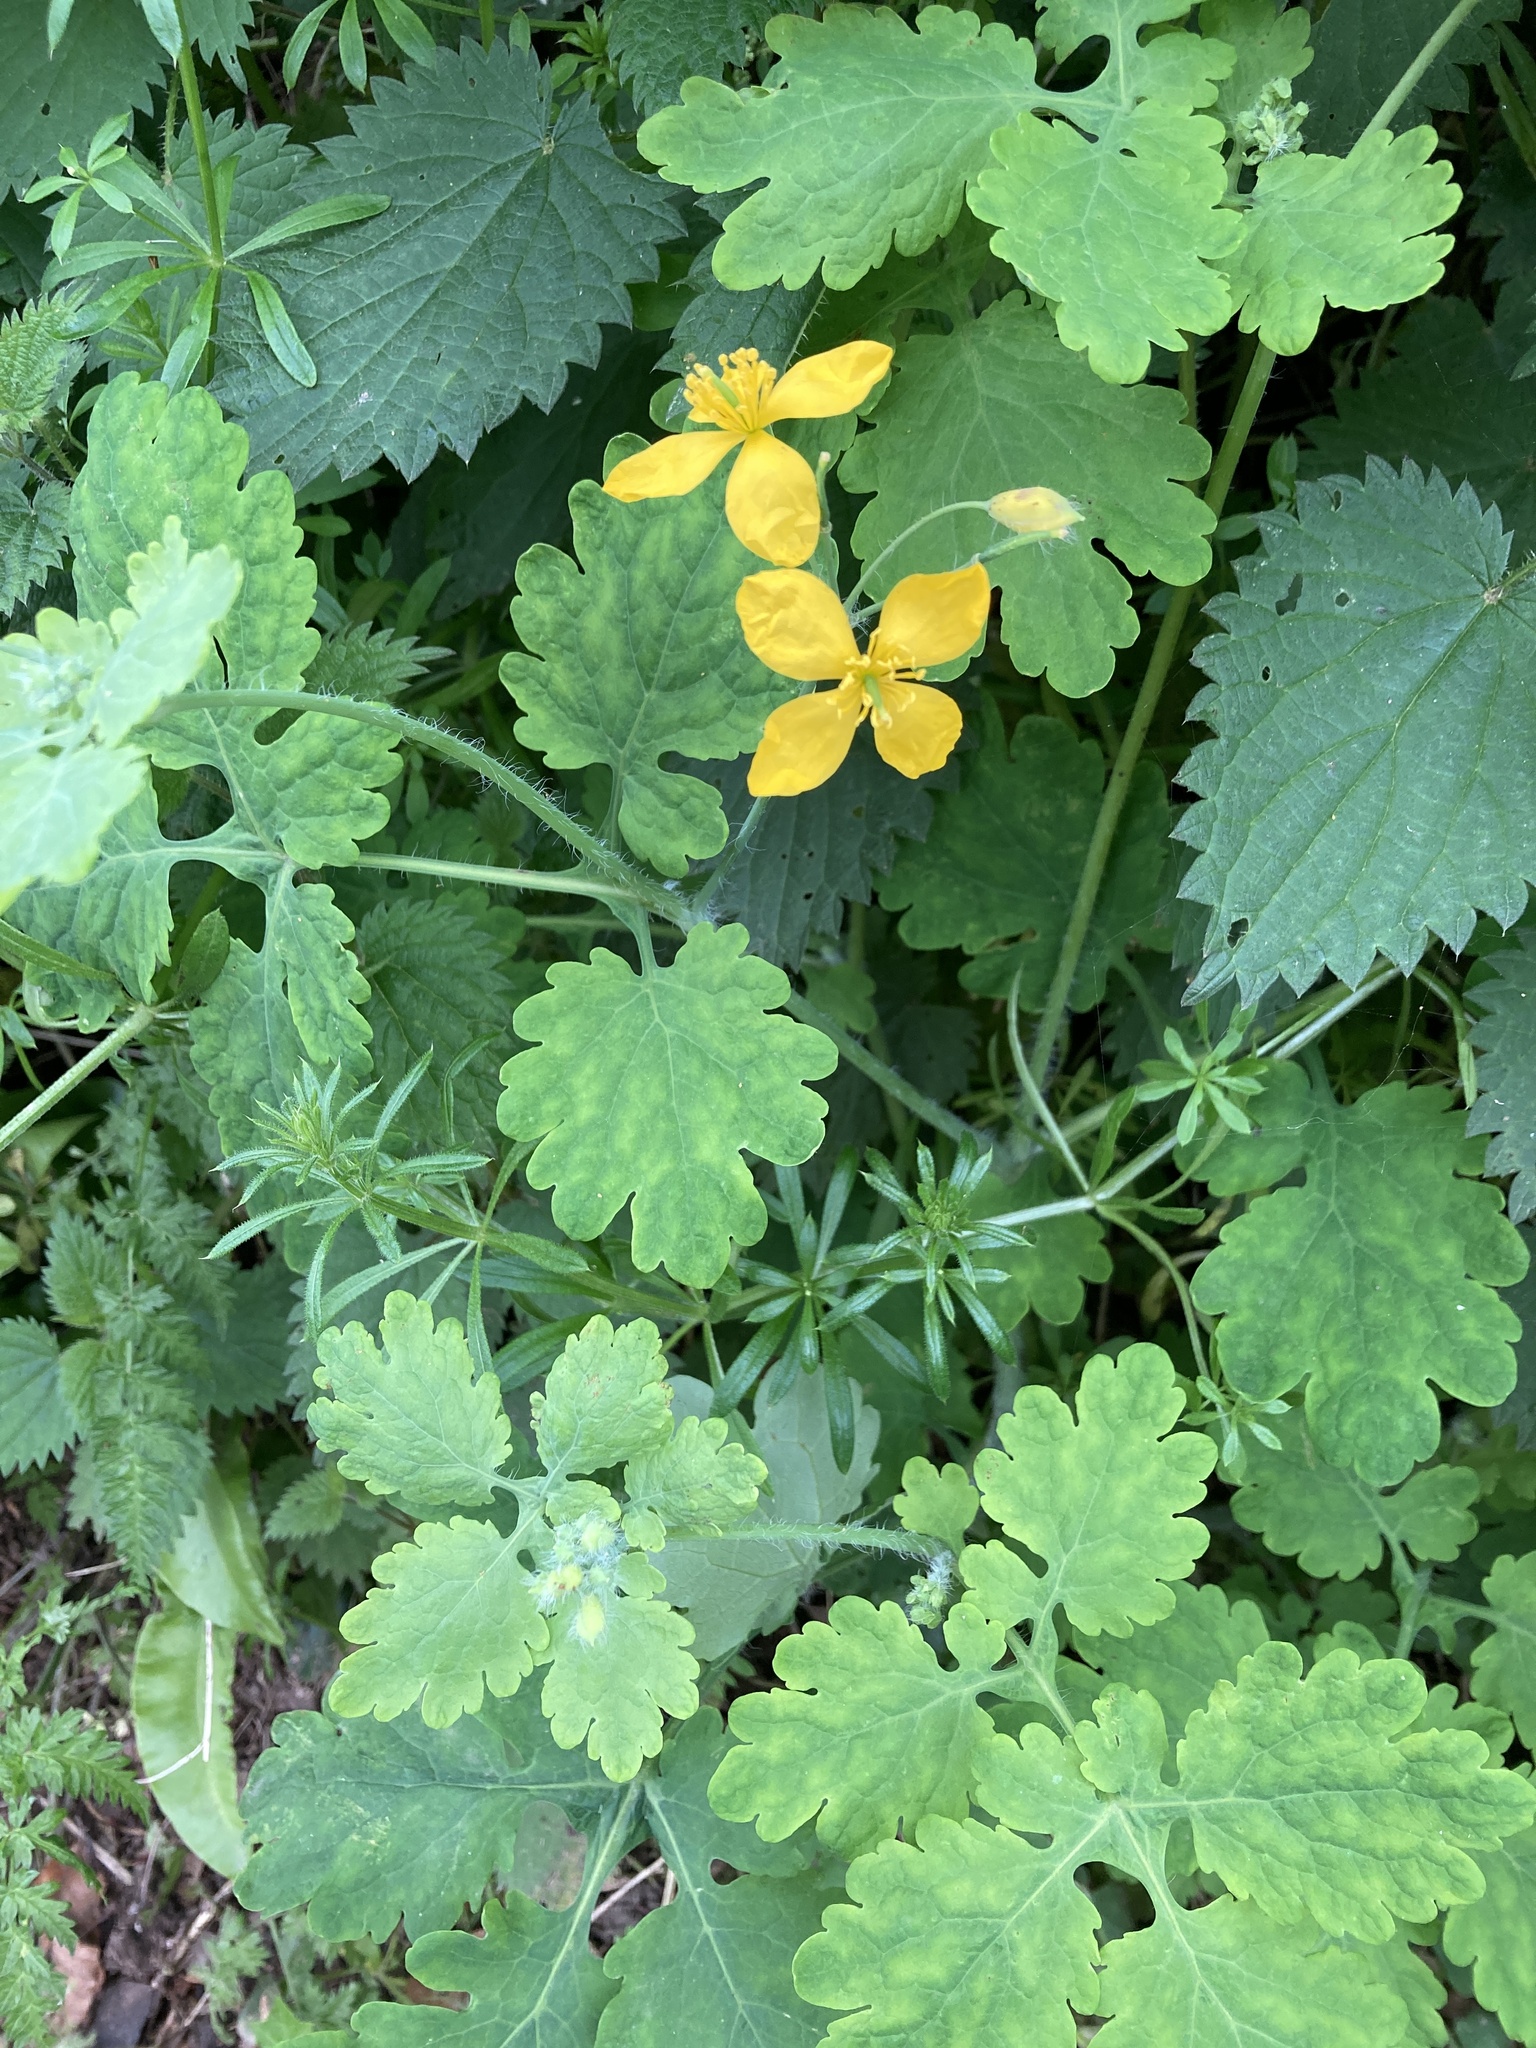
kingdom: Plantae
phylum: Tracheophyta
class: Magnoliopsida
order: Ranunculales
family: Papaveraceae
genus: Chelidonium
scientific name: Chelidonium majus
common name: Greater celandine
